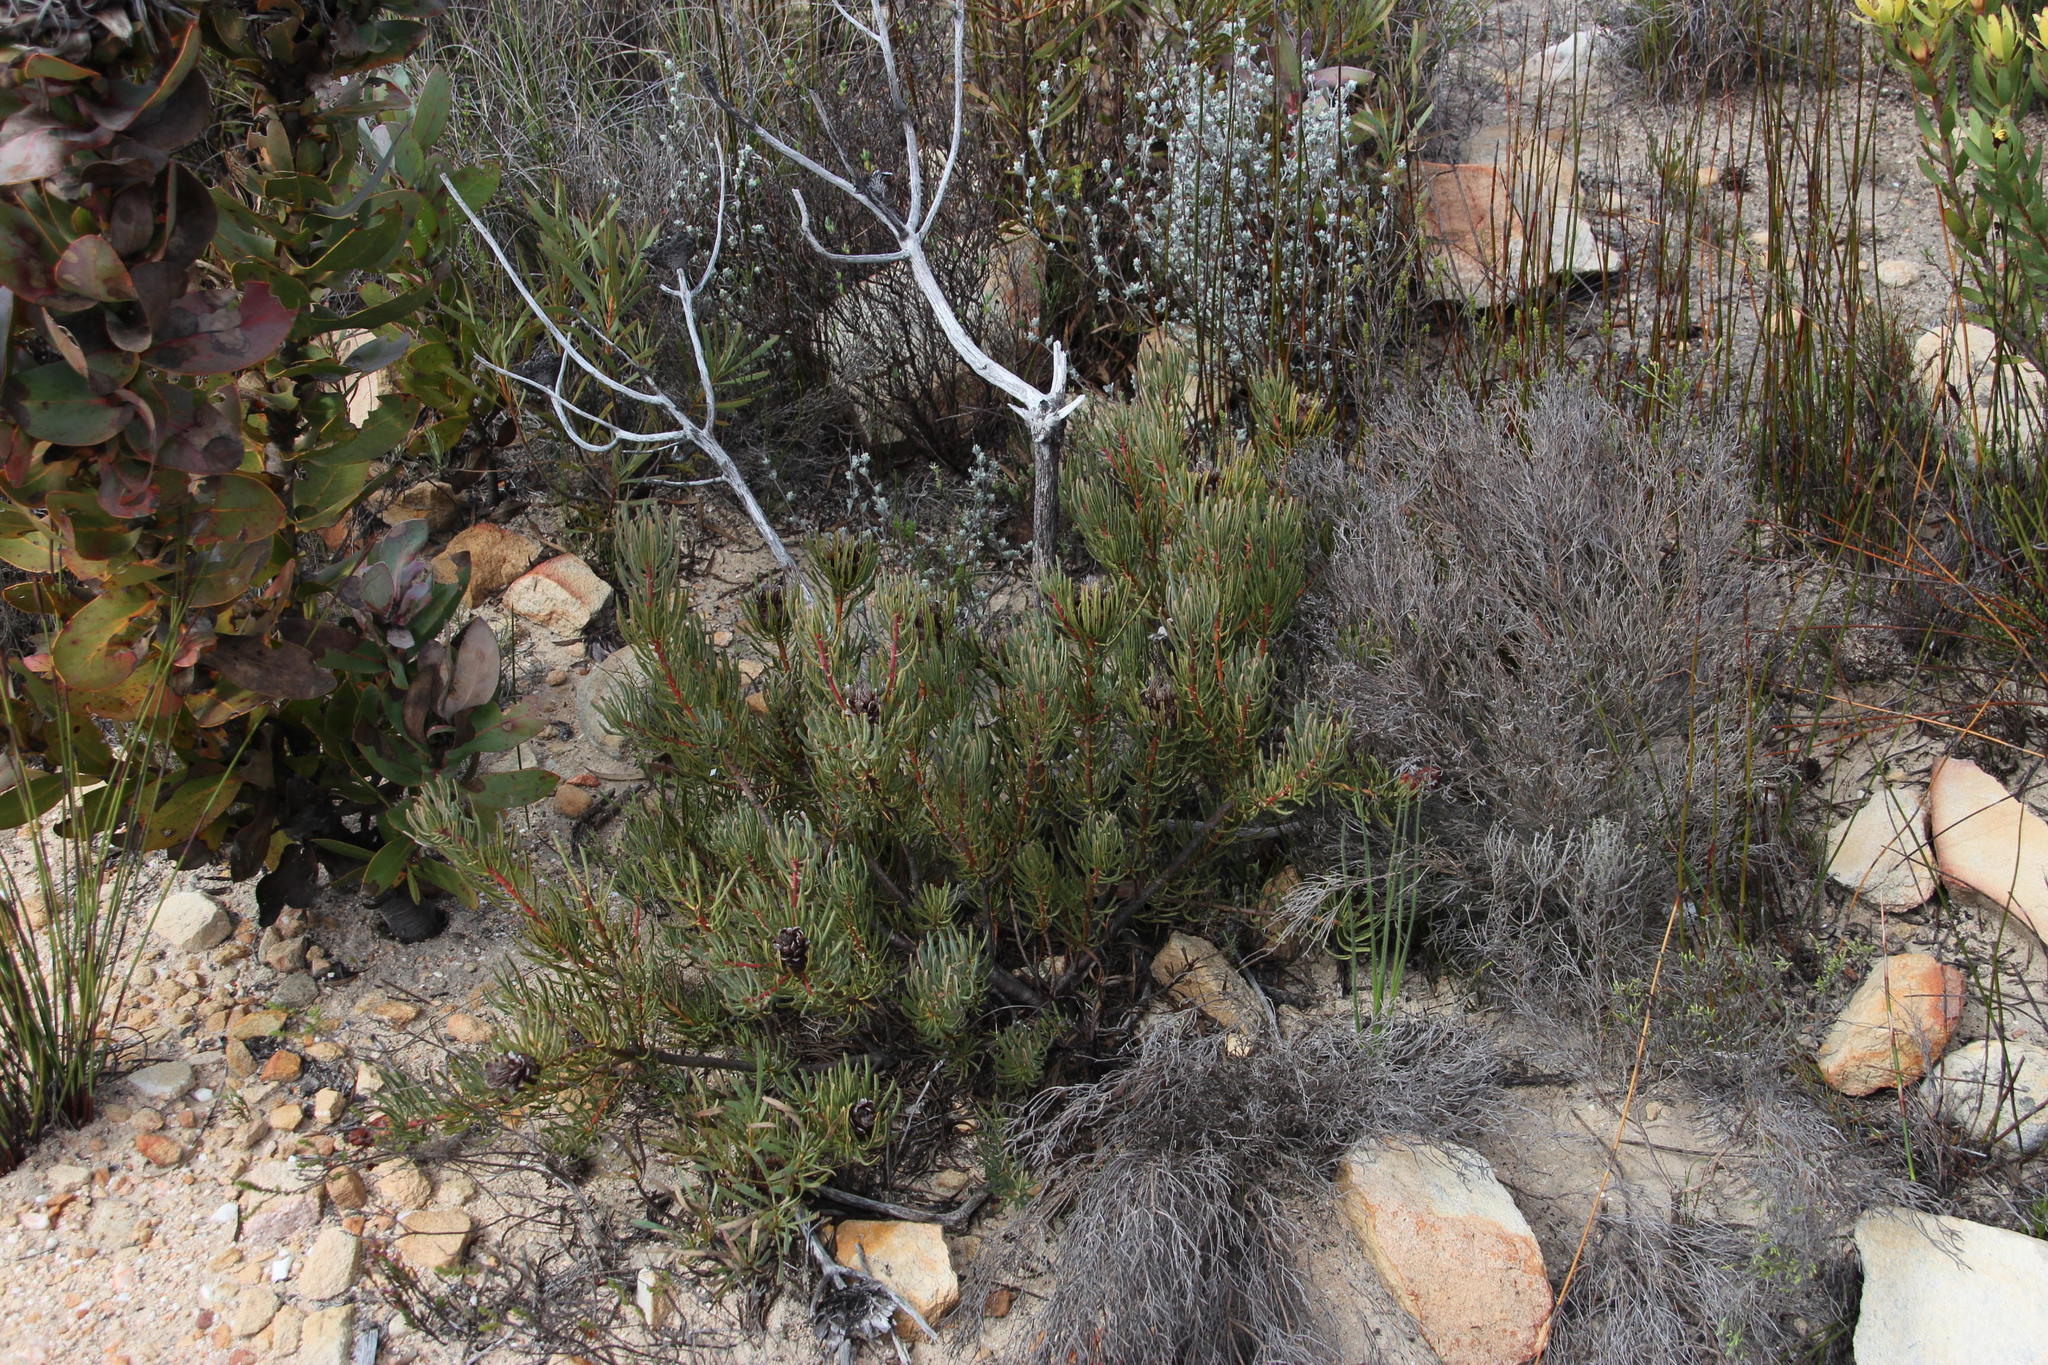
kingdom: Plantae
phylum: Tracheophyta
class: Magnoliopsida
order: Proteales
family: Proteaceae
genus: Protea
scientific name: Protea canaliculata
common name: Groove-leaf sugarbush
